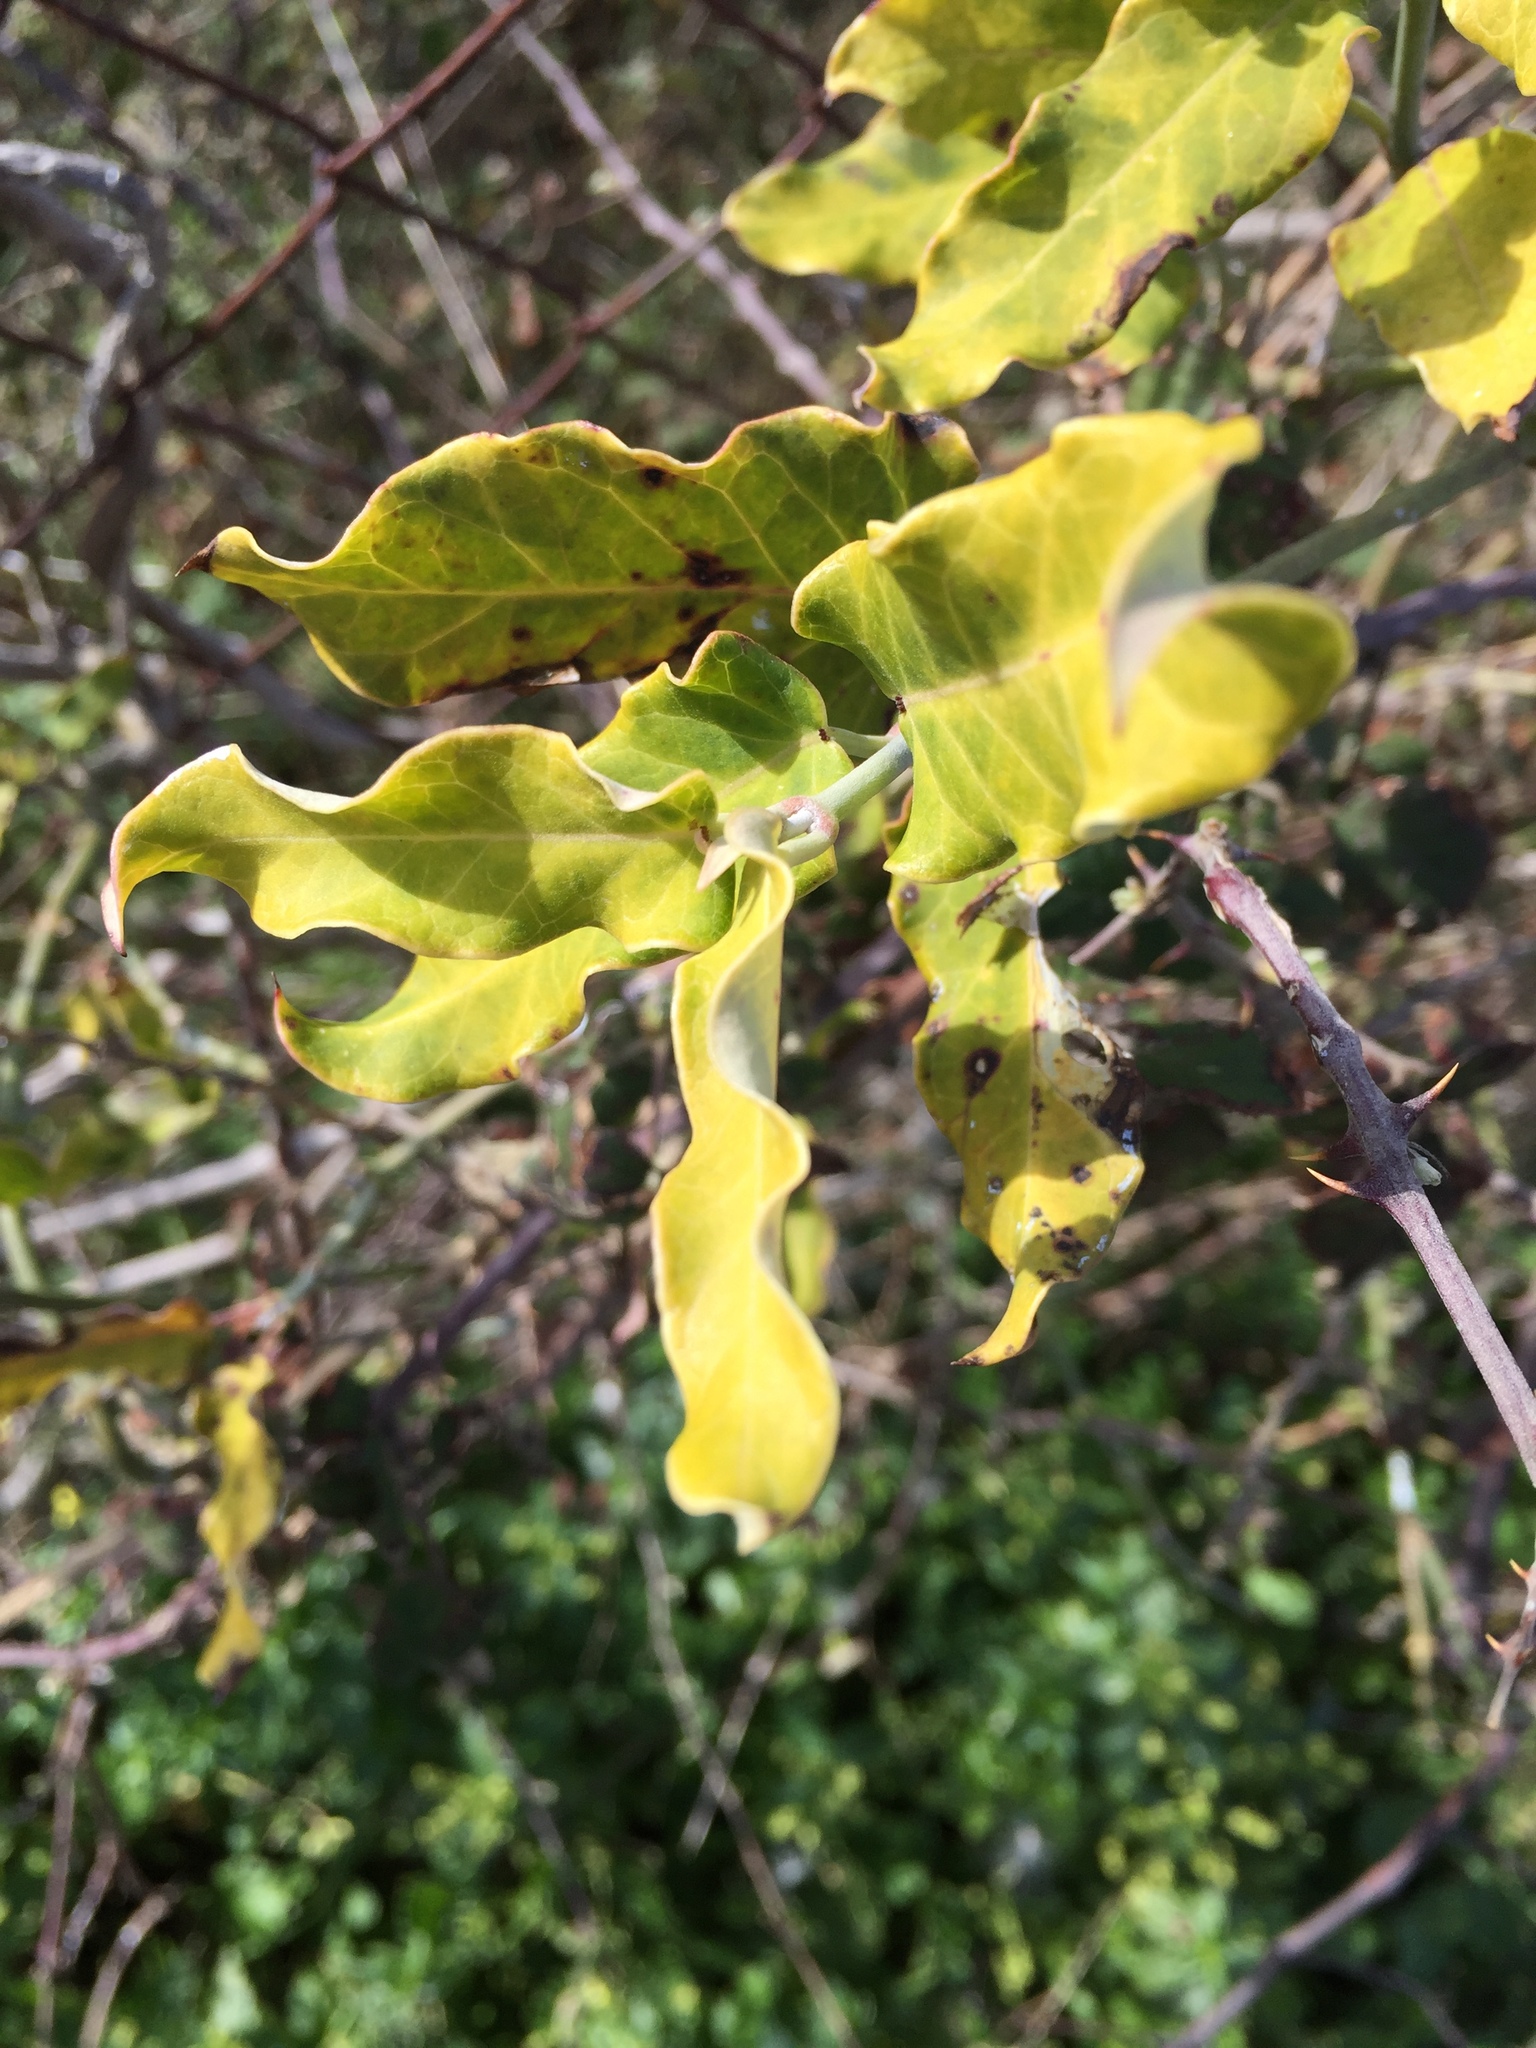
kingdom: Plantae
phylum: Tracheophyta
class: Magnoliopsida
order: Gentianales
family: Apocynaceae
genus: Araujia
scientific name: Araujia sericifera
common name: White bladderflower
